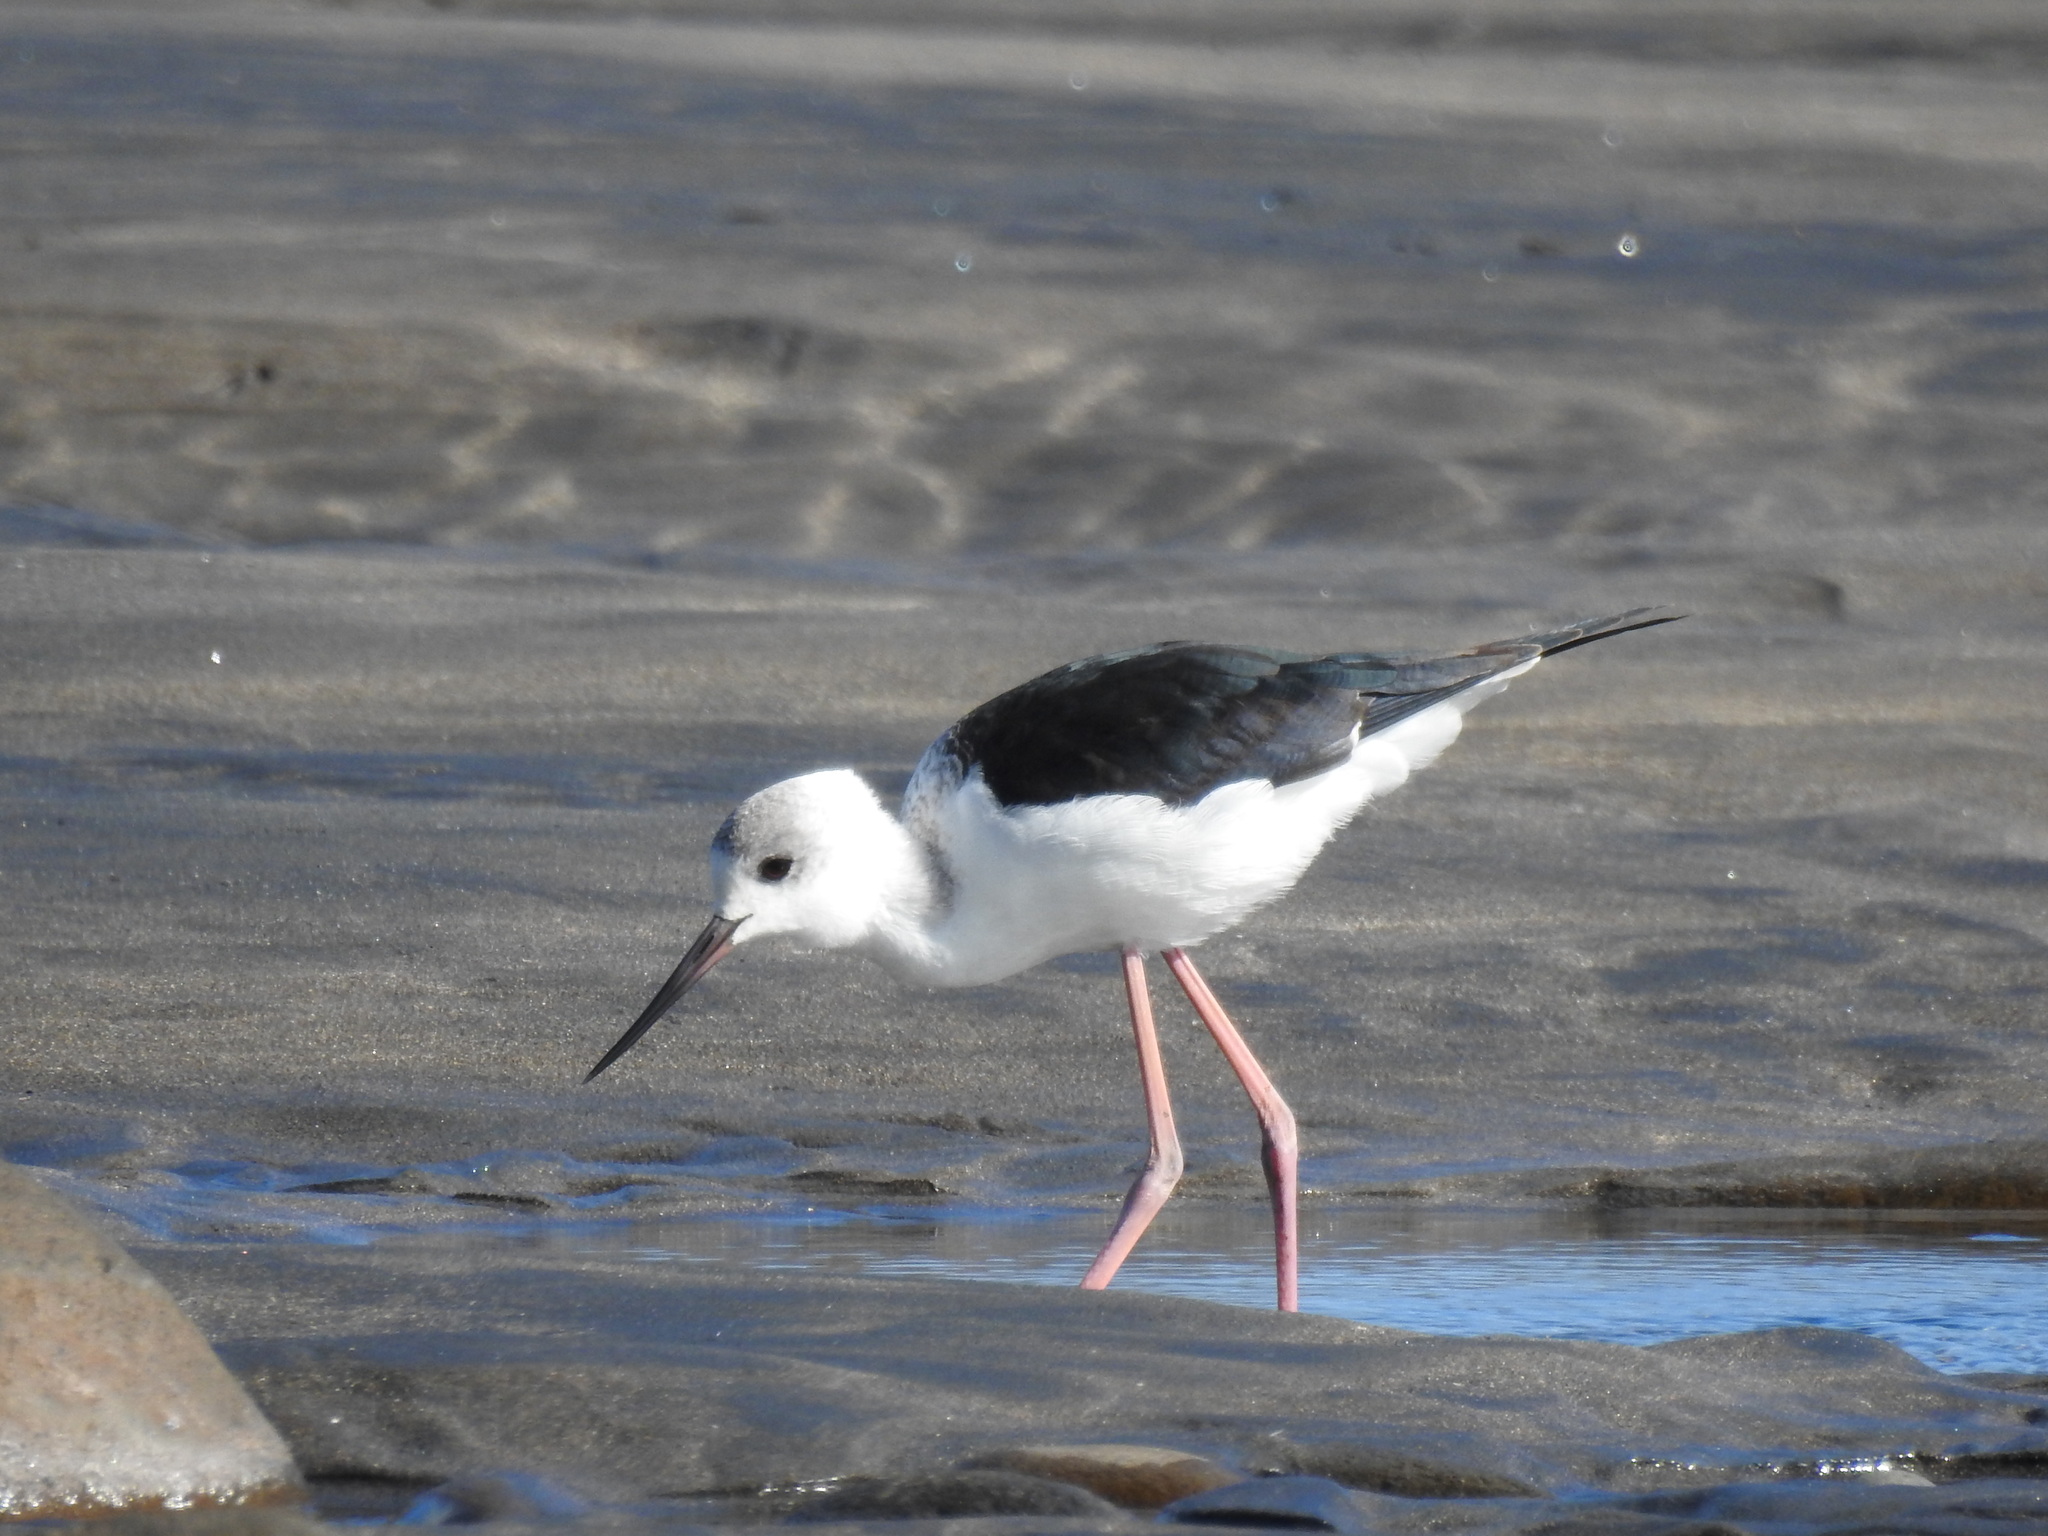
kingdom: Animalia
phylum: Chordata
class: Aves
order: Charadriiformes
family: Recurvirostridae
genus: Himantopus
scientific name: Himantopus leucocephalus
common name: White-headed stilt
